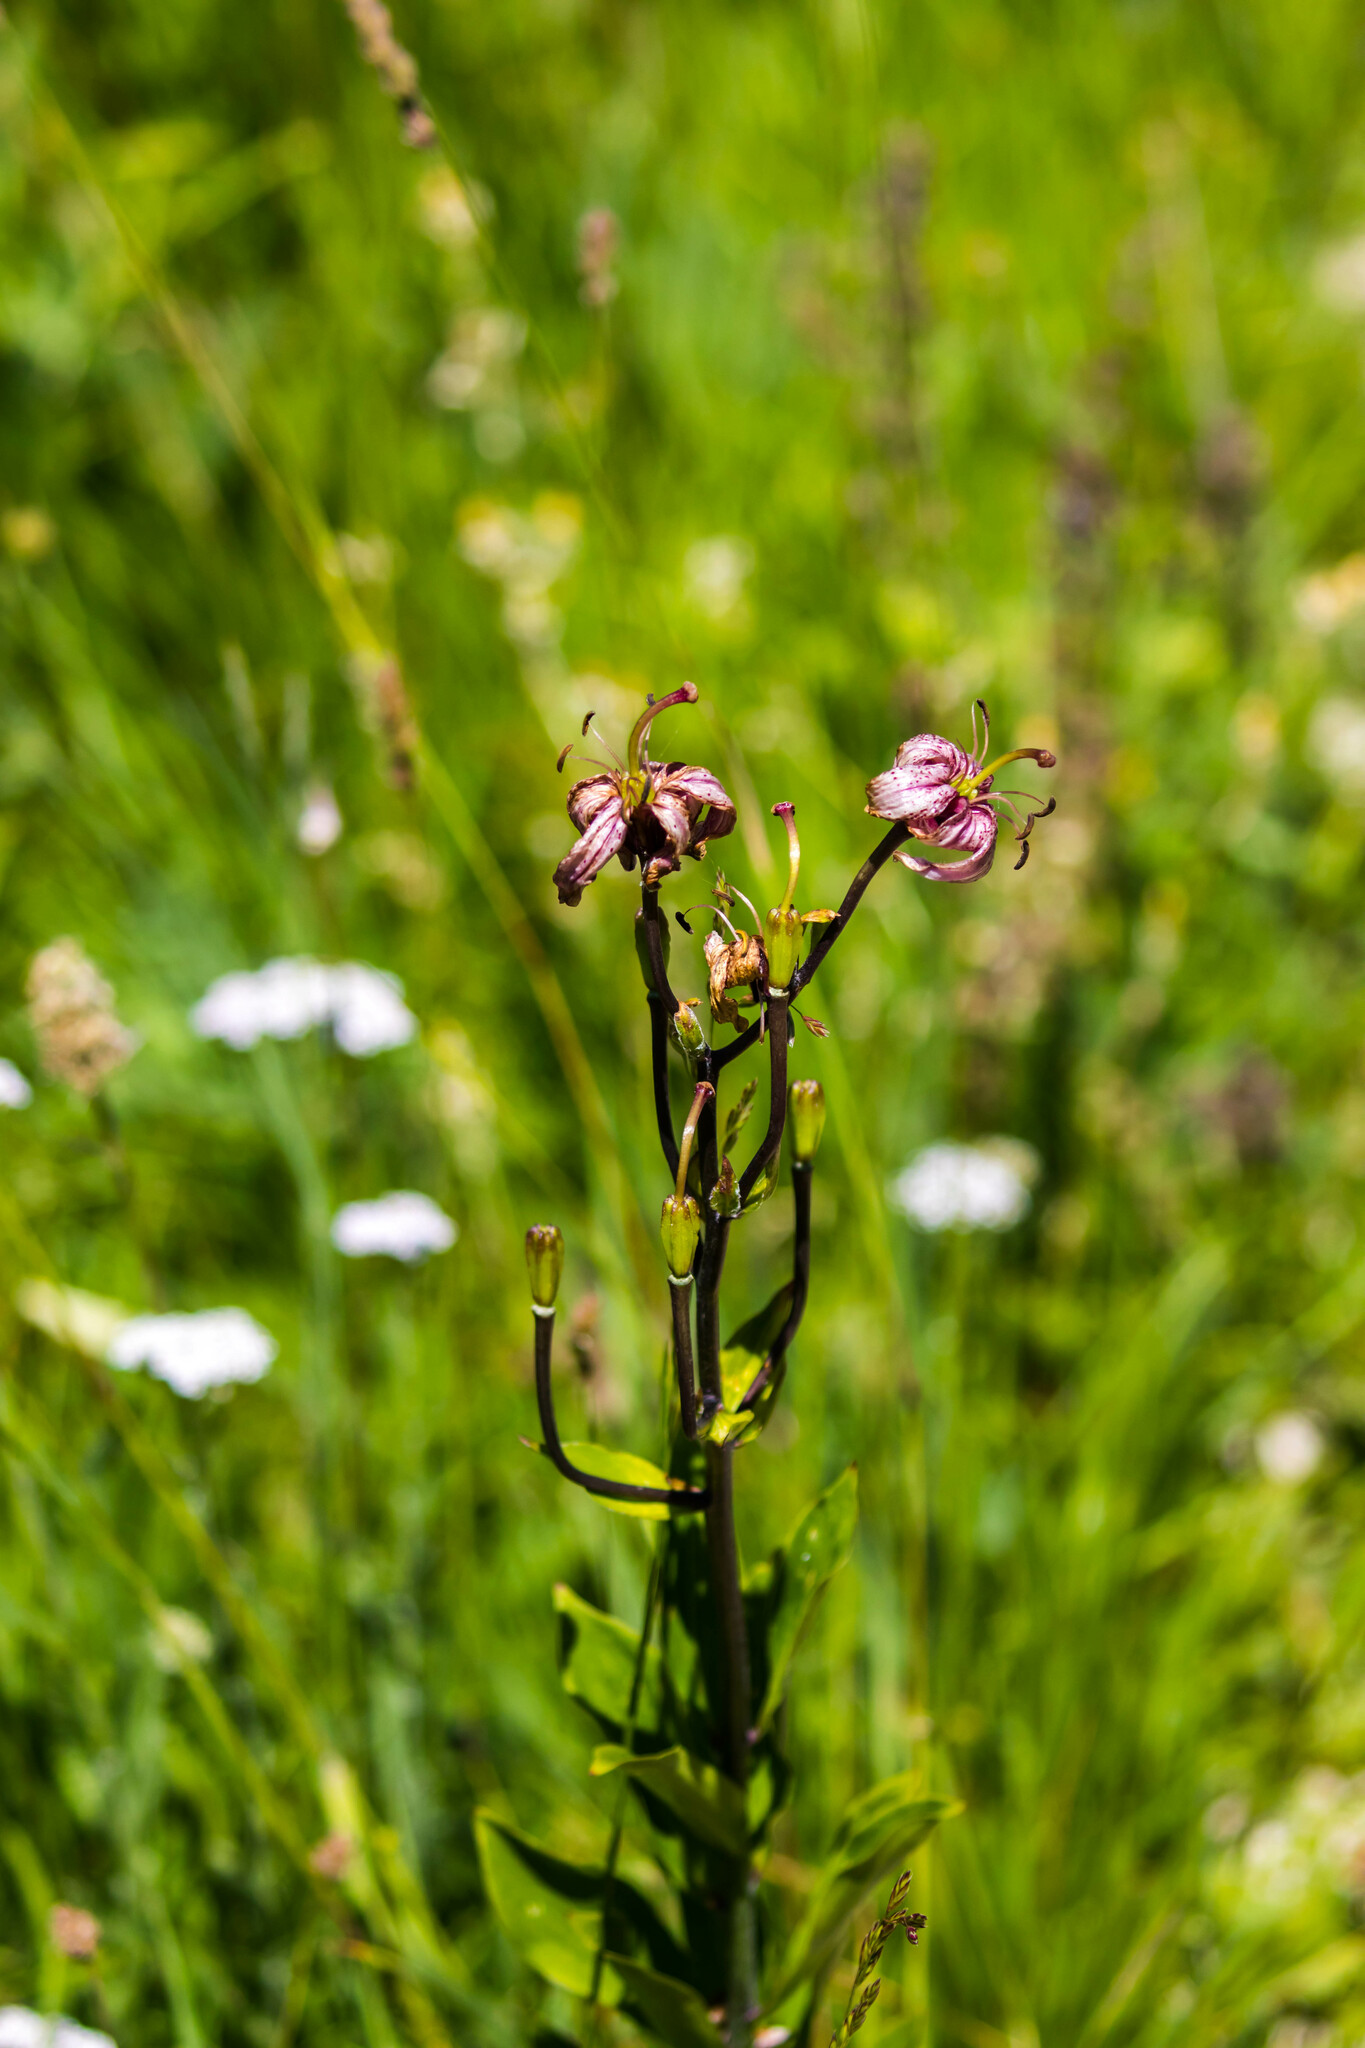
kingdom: Plantae
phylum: Tracheophyta
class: Liliopsida
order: Liliales
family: Liliaceae
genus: Lilium
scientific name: Lilium martagon
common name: Martagon lily
